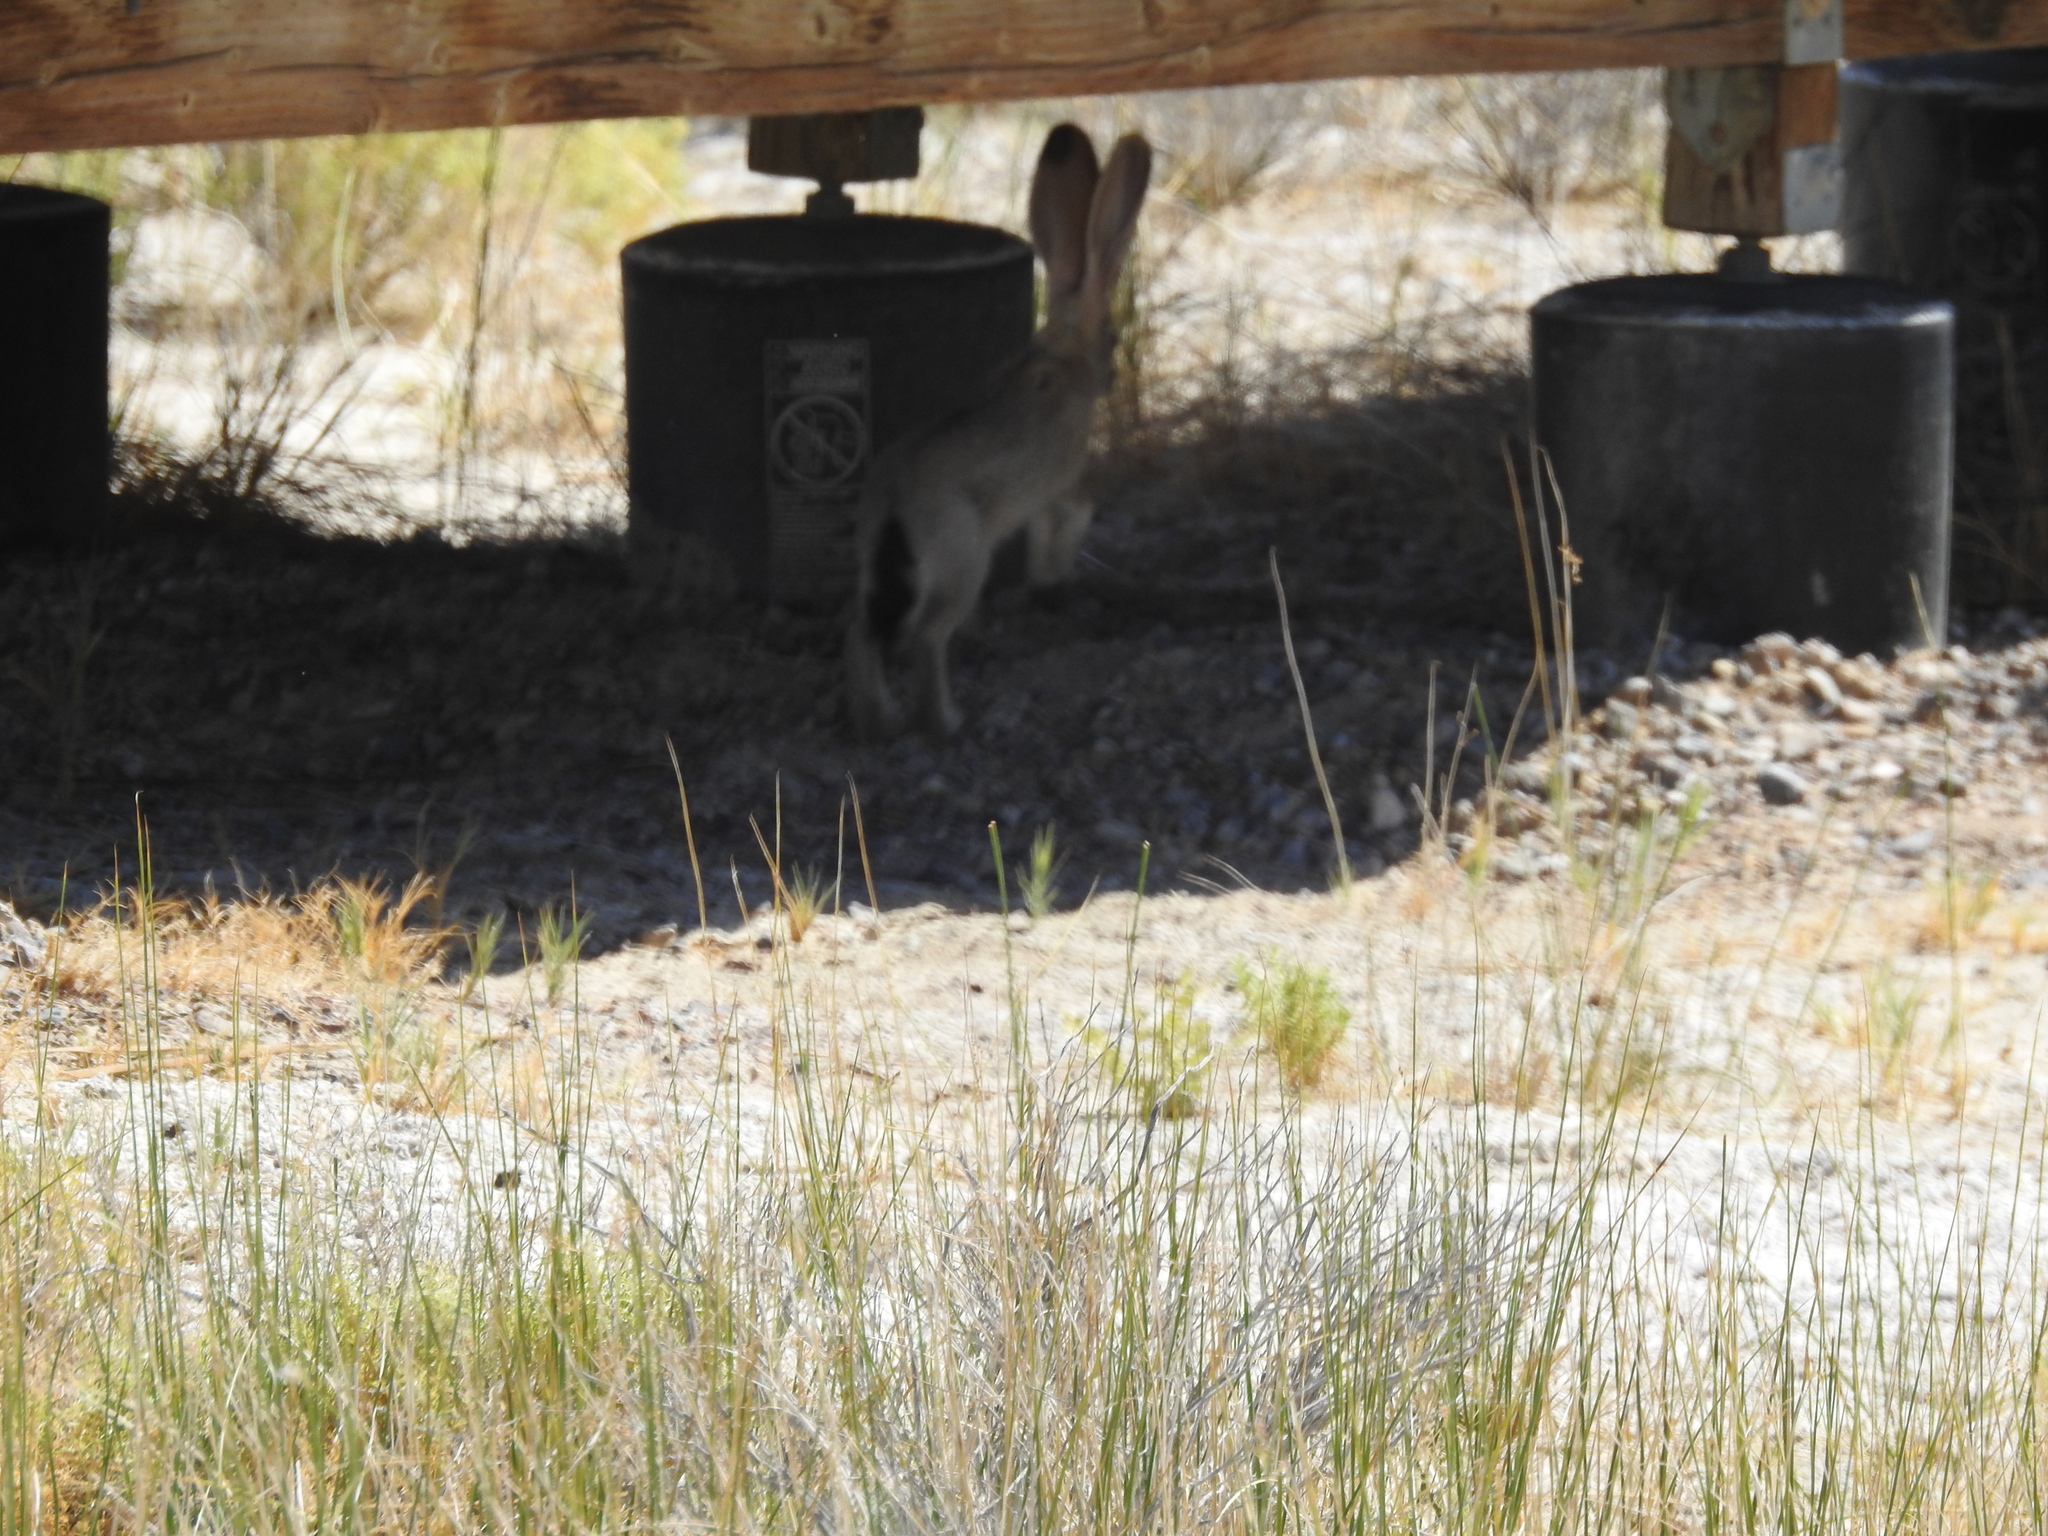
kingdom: Animalia
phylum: Chordata
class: Mammalia
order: Lagomorpha
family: Leporidae
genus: Lepus
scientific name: Lepus californicus
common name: Black-tailed jackrabbit
